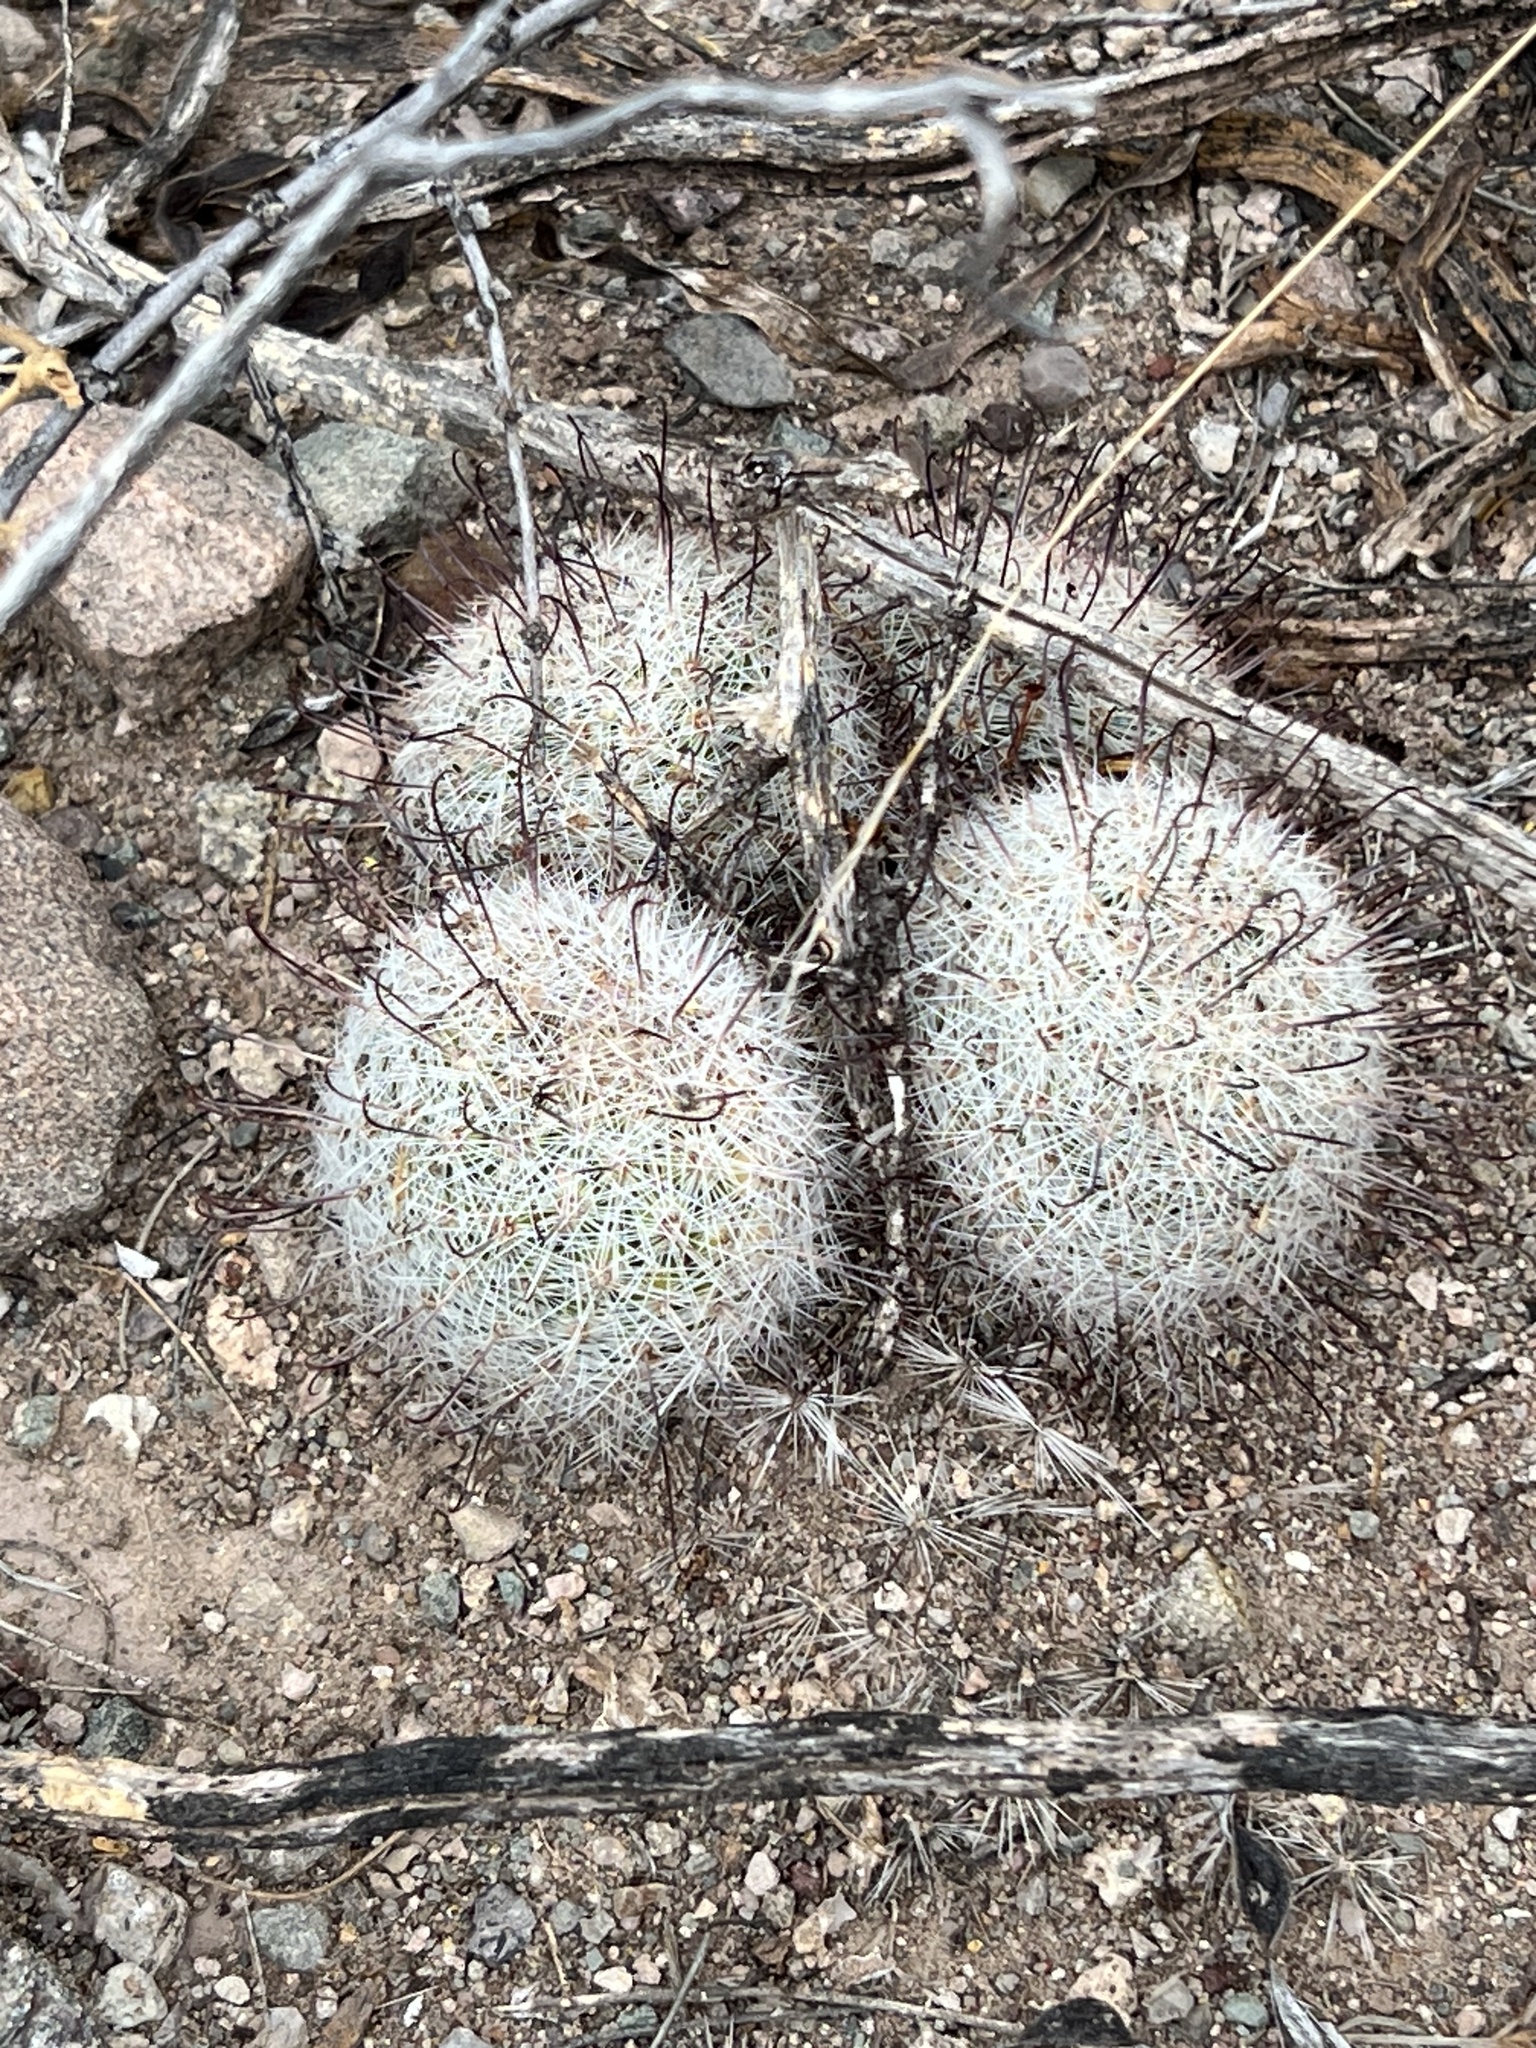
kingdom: Plantae
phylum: Tracheophyta
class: Magnoliopsida
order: Caryophyllales
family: Cactaceae
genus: Cochemiea
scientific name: Cochemiea grahamii
